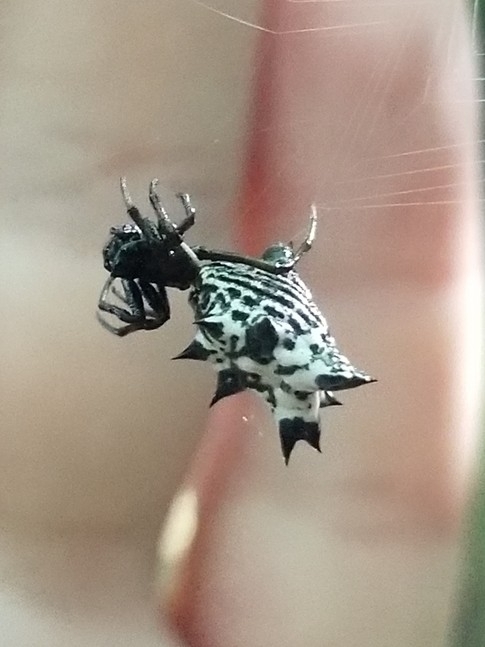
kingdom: Animalia
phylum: Arthropoda
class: Arachnida
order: Araneae
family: Araneidae
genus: Micrathena
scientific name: Micrathena gracilis
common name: Orb weavers
